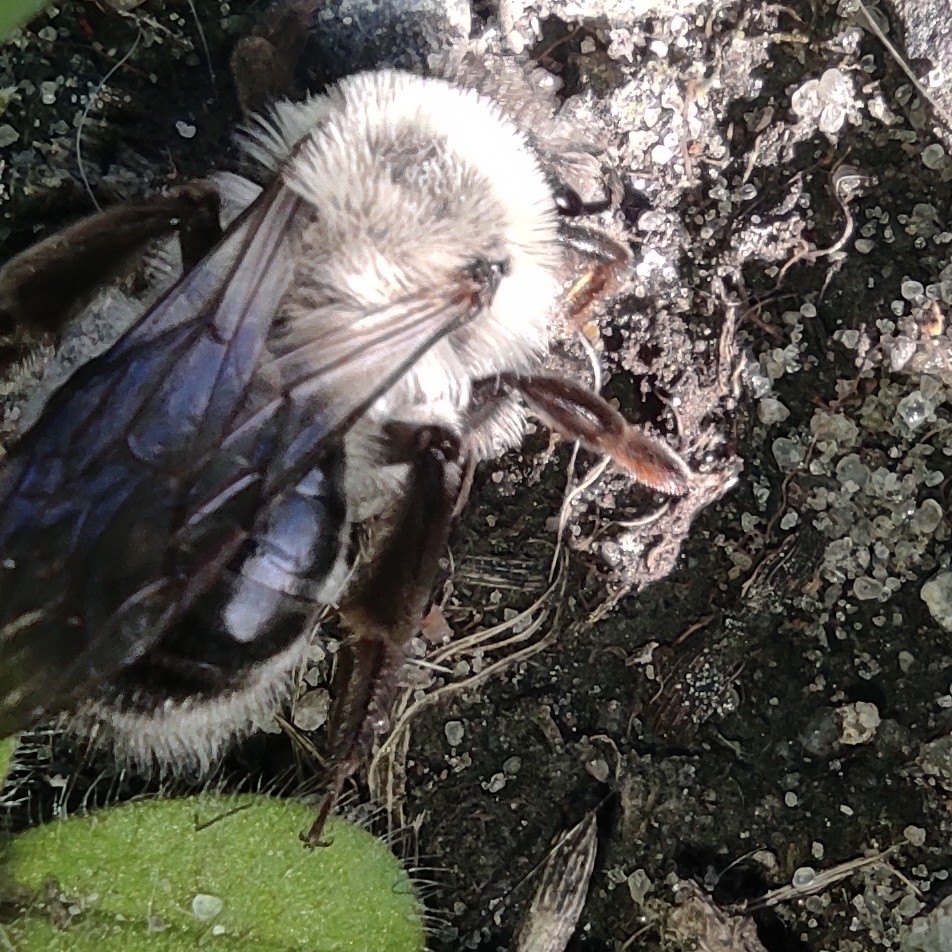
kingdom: Animalia
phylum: Arthropoda
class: Insecta
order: Hymenoptera
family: Andrenidae
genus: Andrena
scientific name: Andrena vaga
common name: Grey-backed mining bee
